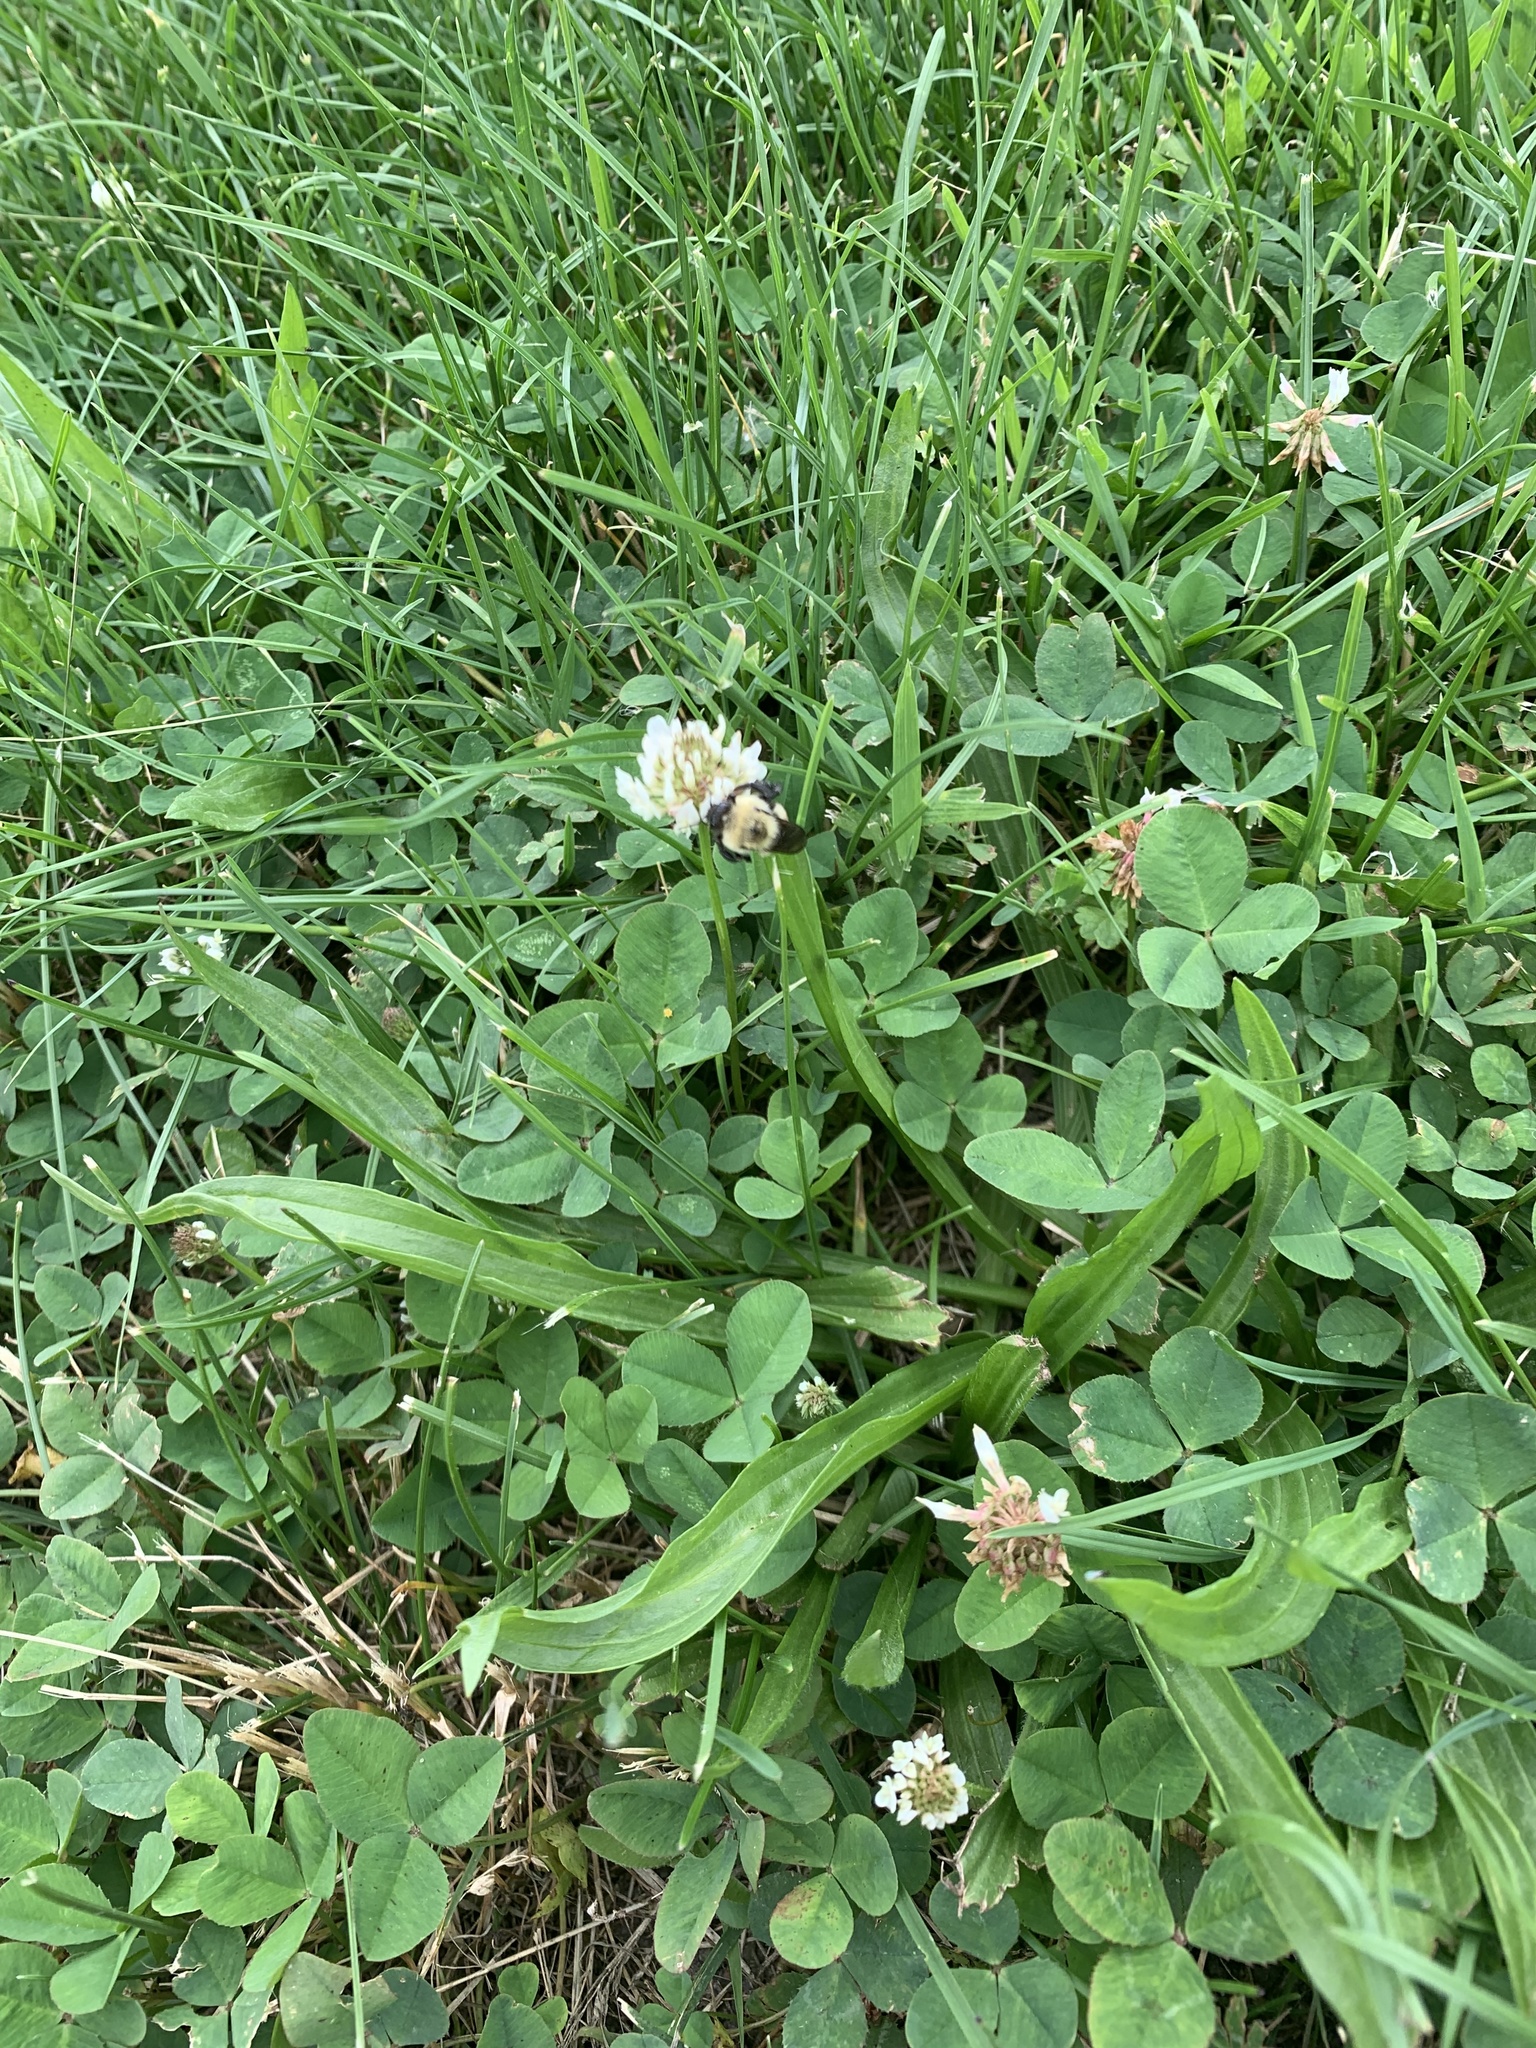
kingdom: Animalia
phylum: Arthropoda
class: Insecta
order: Hymenoptera
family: Apidae
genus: Bombus
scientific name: Bombus griseocollis
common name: Brown-belted bumble bee
